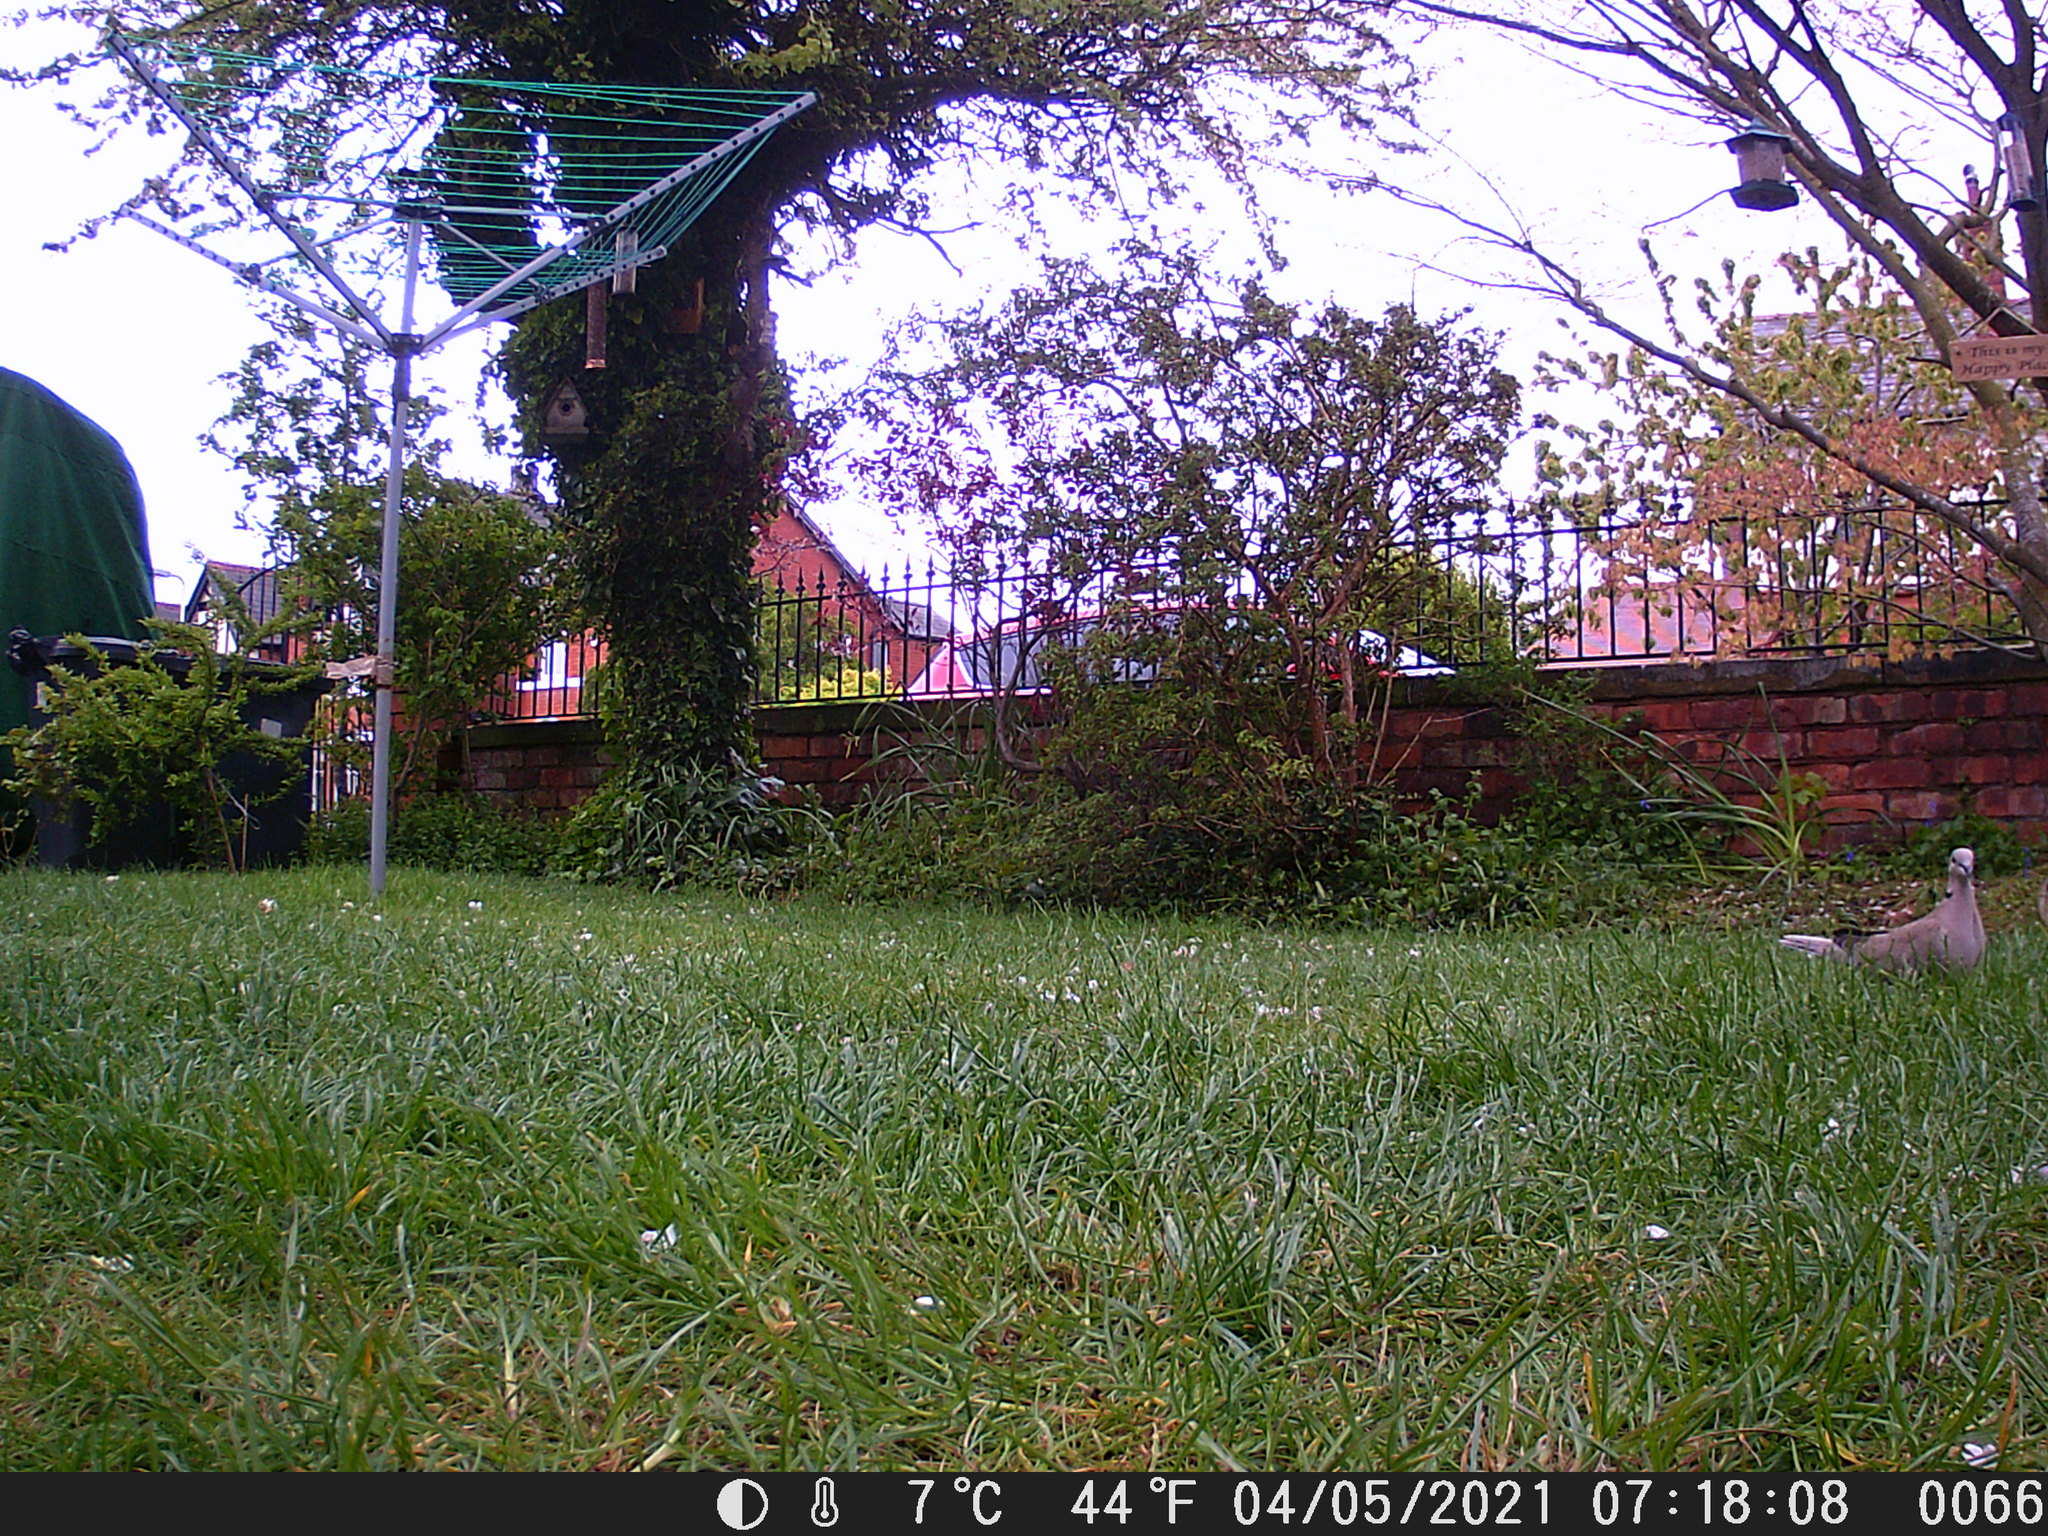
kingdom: Animalia
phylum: Chordata
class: Aves
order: Columbiformes
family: Columbidae
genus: Streptopelia
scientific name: Streptopelia decaocto
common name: Eurasian collared dove
